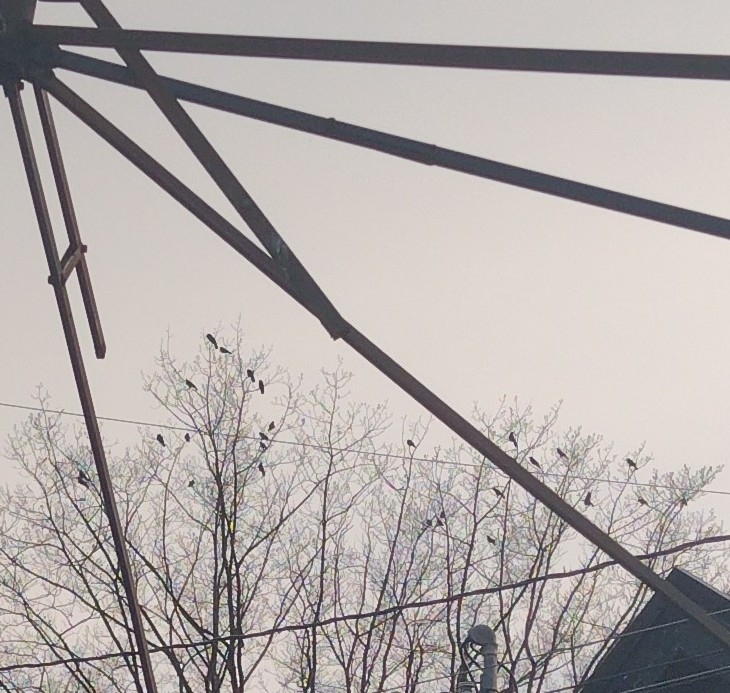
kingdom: Animalia
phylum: Chordata
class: Aves
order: Passeriformes
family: Corvidae
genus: Corvus
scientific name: Corvus brachyrhynchos
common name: American crow
